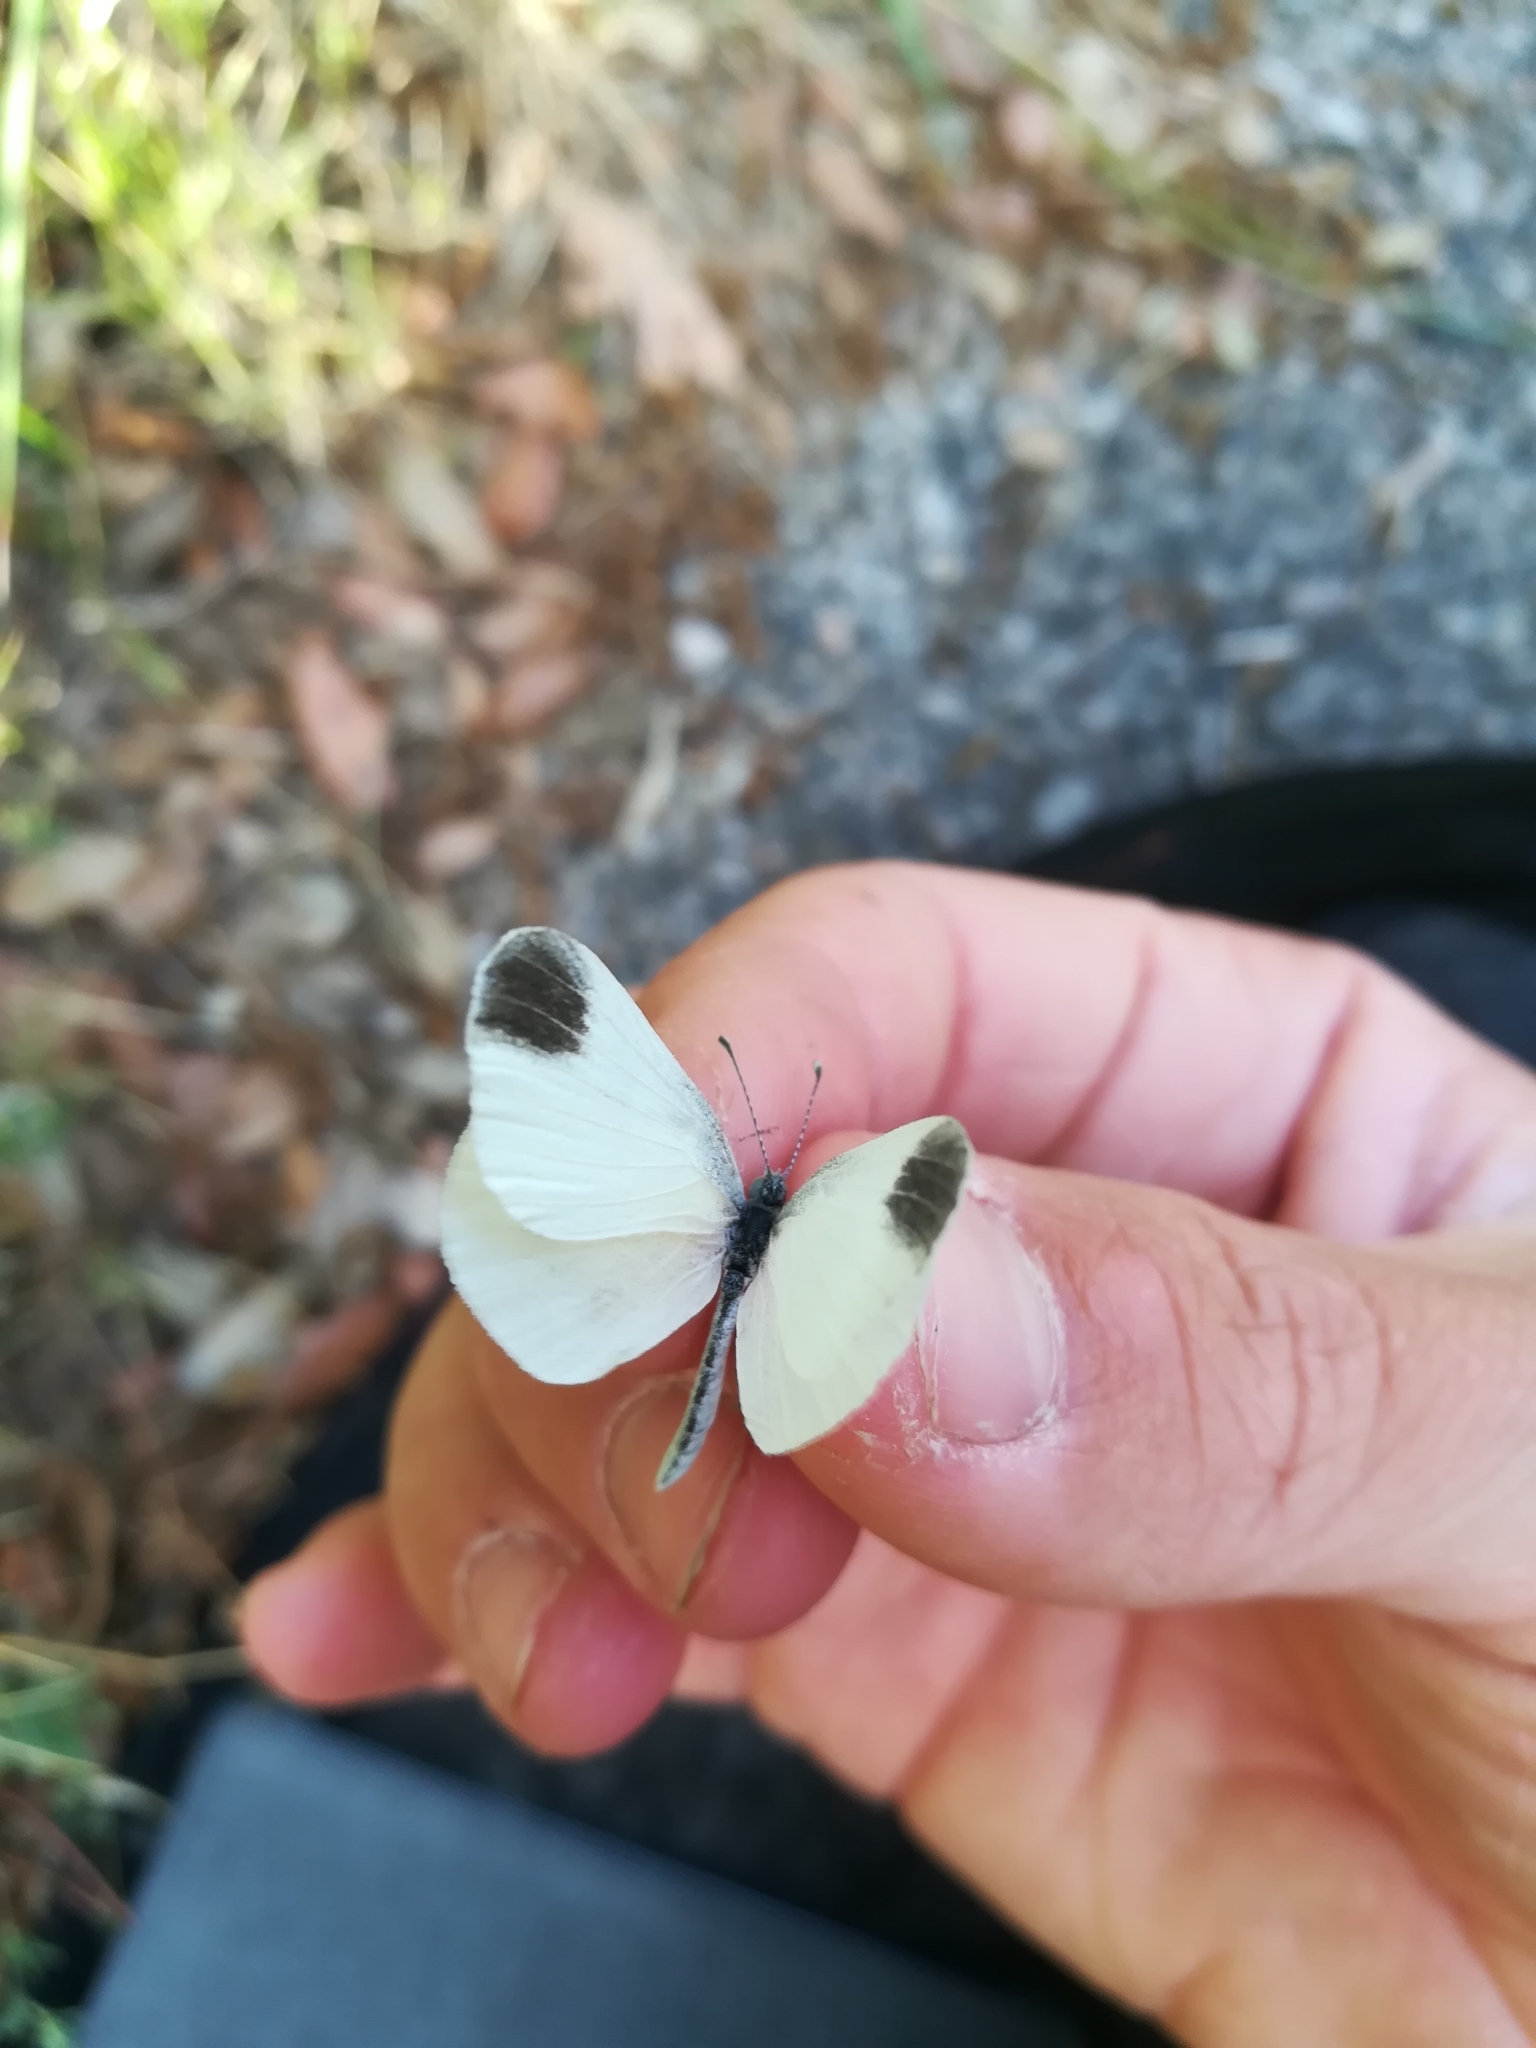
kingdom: Animalia
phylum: Arthropoda
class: Insecta
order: Lepidoptera
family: Pieridae
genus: Leptidea
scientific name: Leptidea sinapis
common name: Wood white
